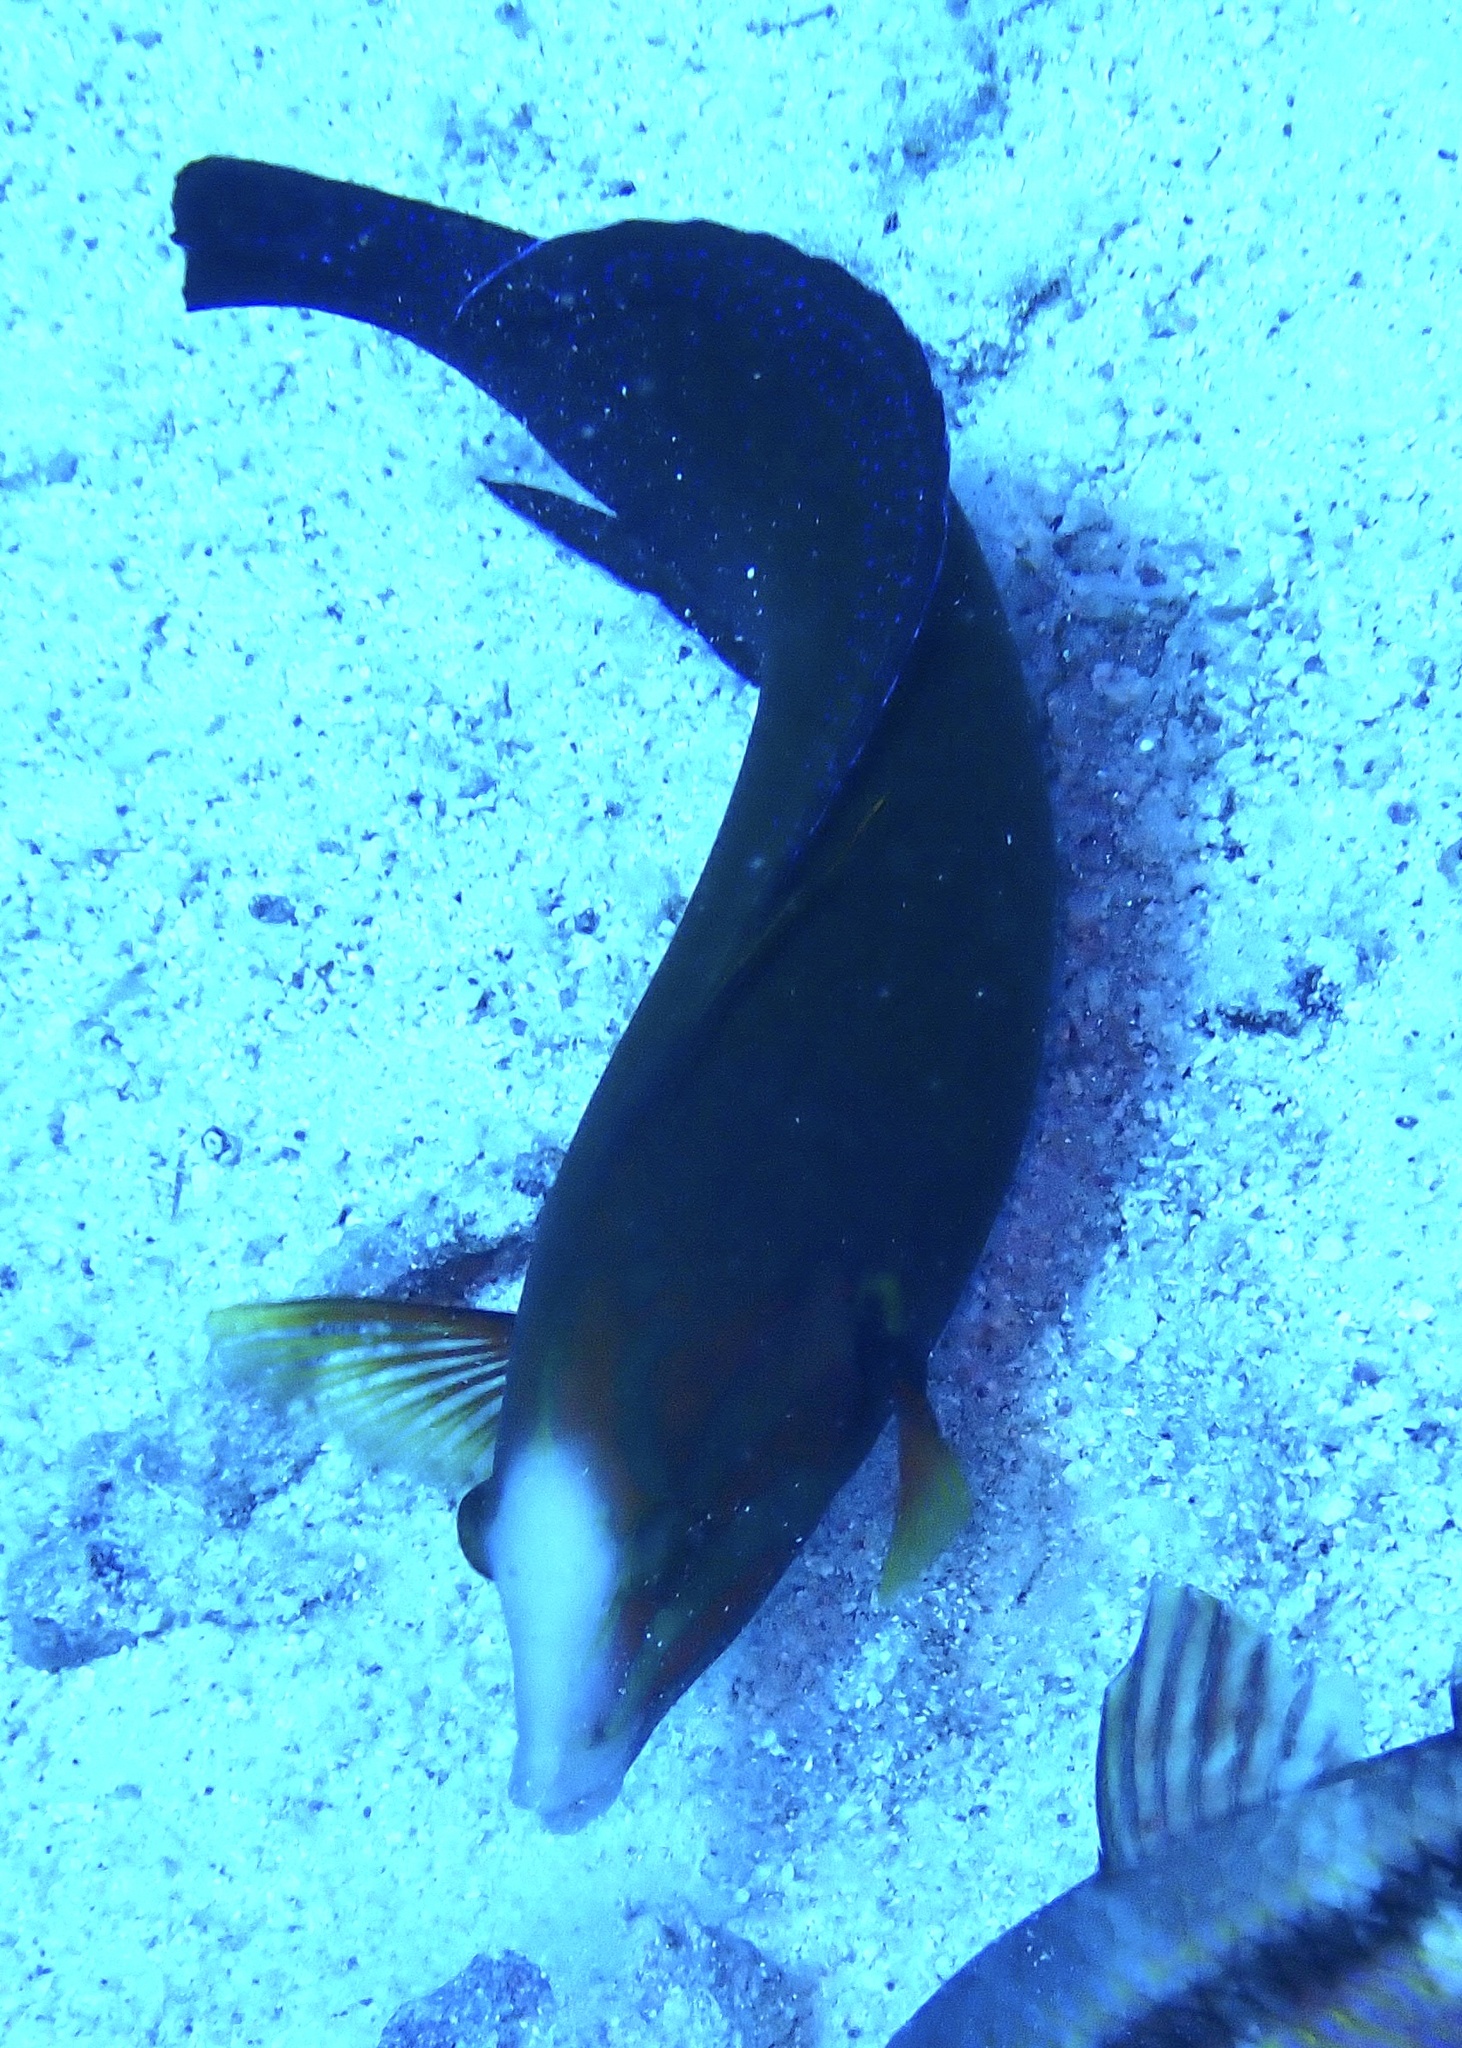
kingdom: Animalia
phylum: Chordata
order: Perciformes
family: Labridae
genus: Coris
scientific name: Coris cuvieri
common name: African coris
